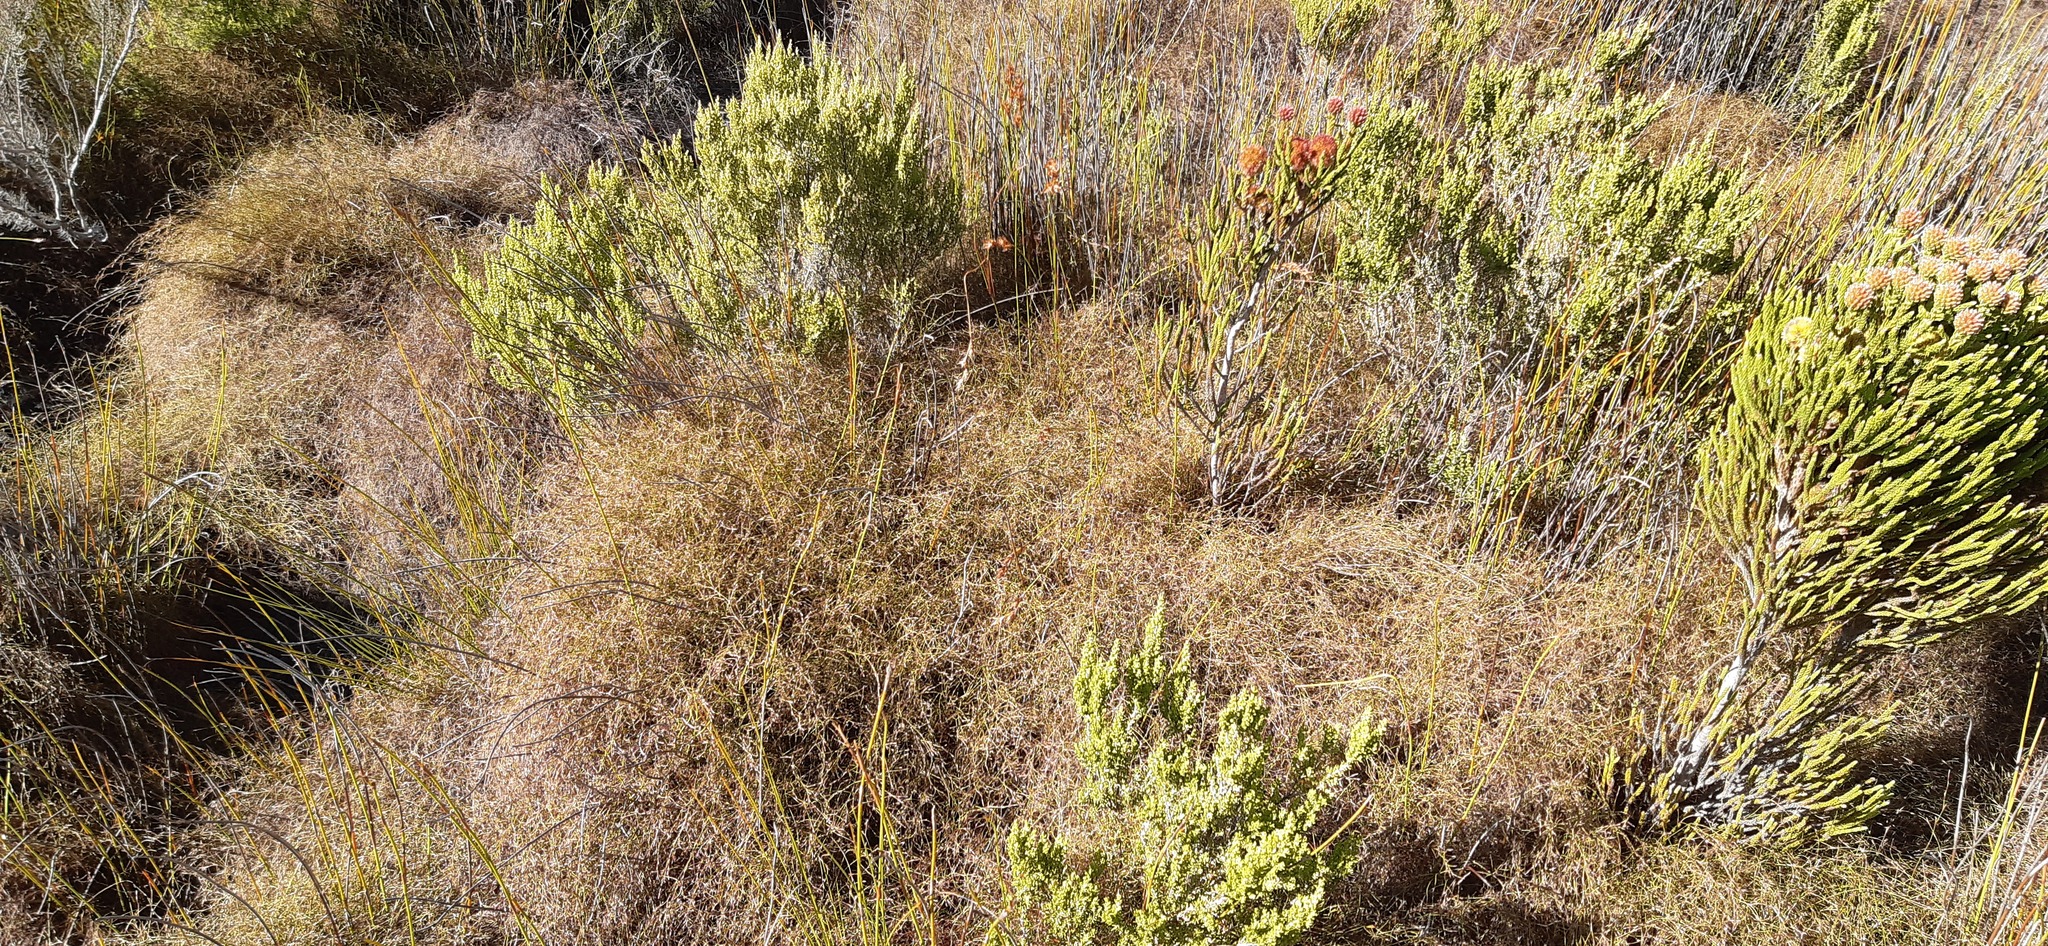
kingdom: Plantae
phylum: Tracheophyta
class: Liliopsida
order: Poales
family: Restionaceae
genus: Restio
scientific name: Restio versatilis
